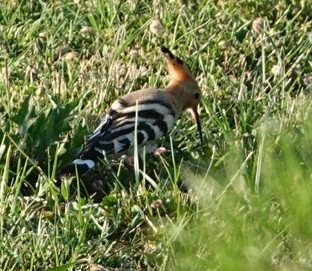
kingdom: Animalia
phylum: Chordata
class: Aves
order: Bucerotiformes
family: Upupidae
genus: Upupa
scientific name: Upupa epops
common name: Eurasian hoopoe
